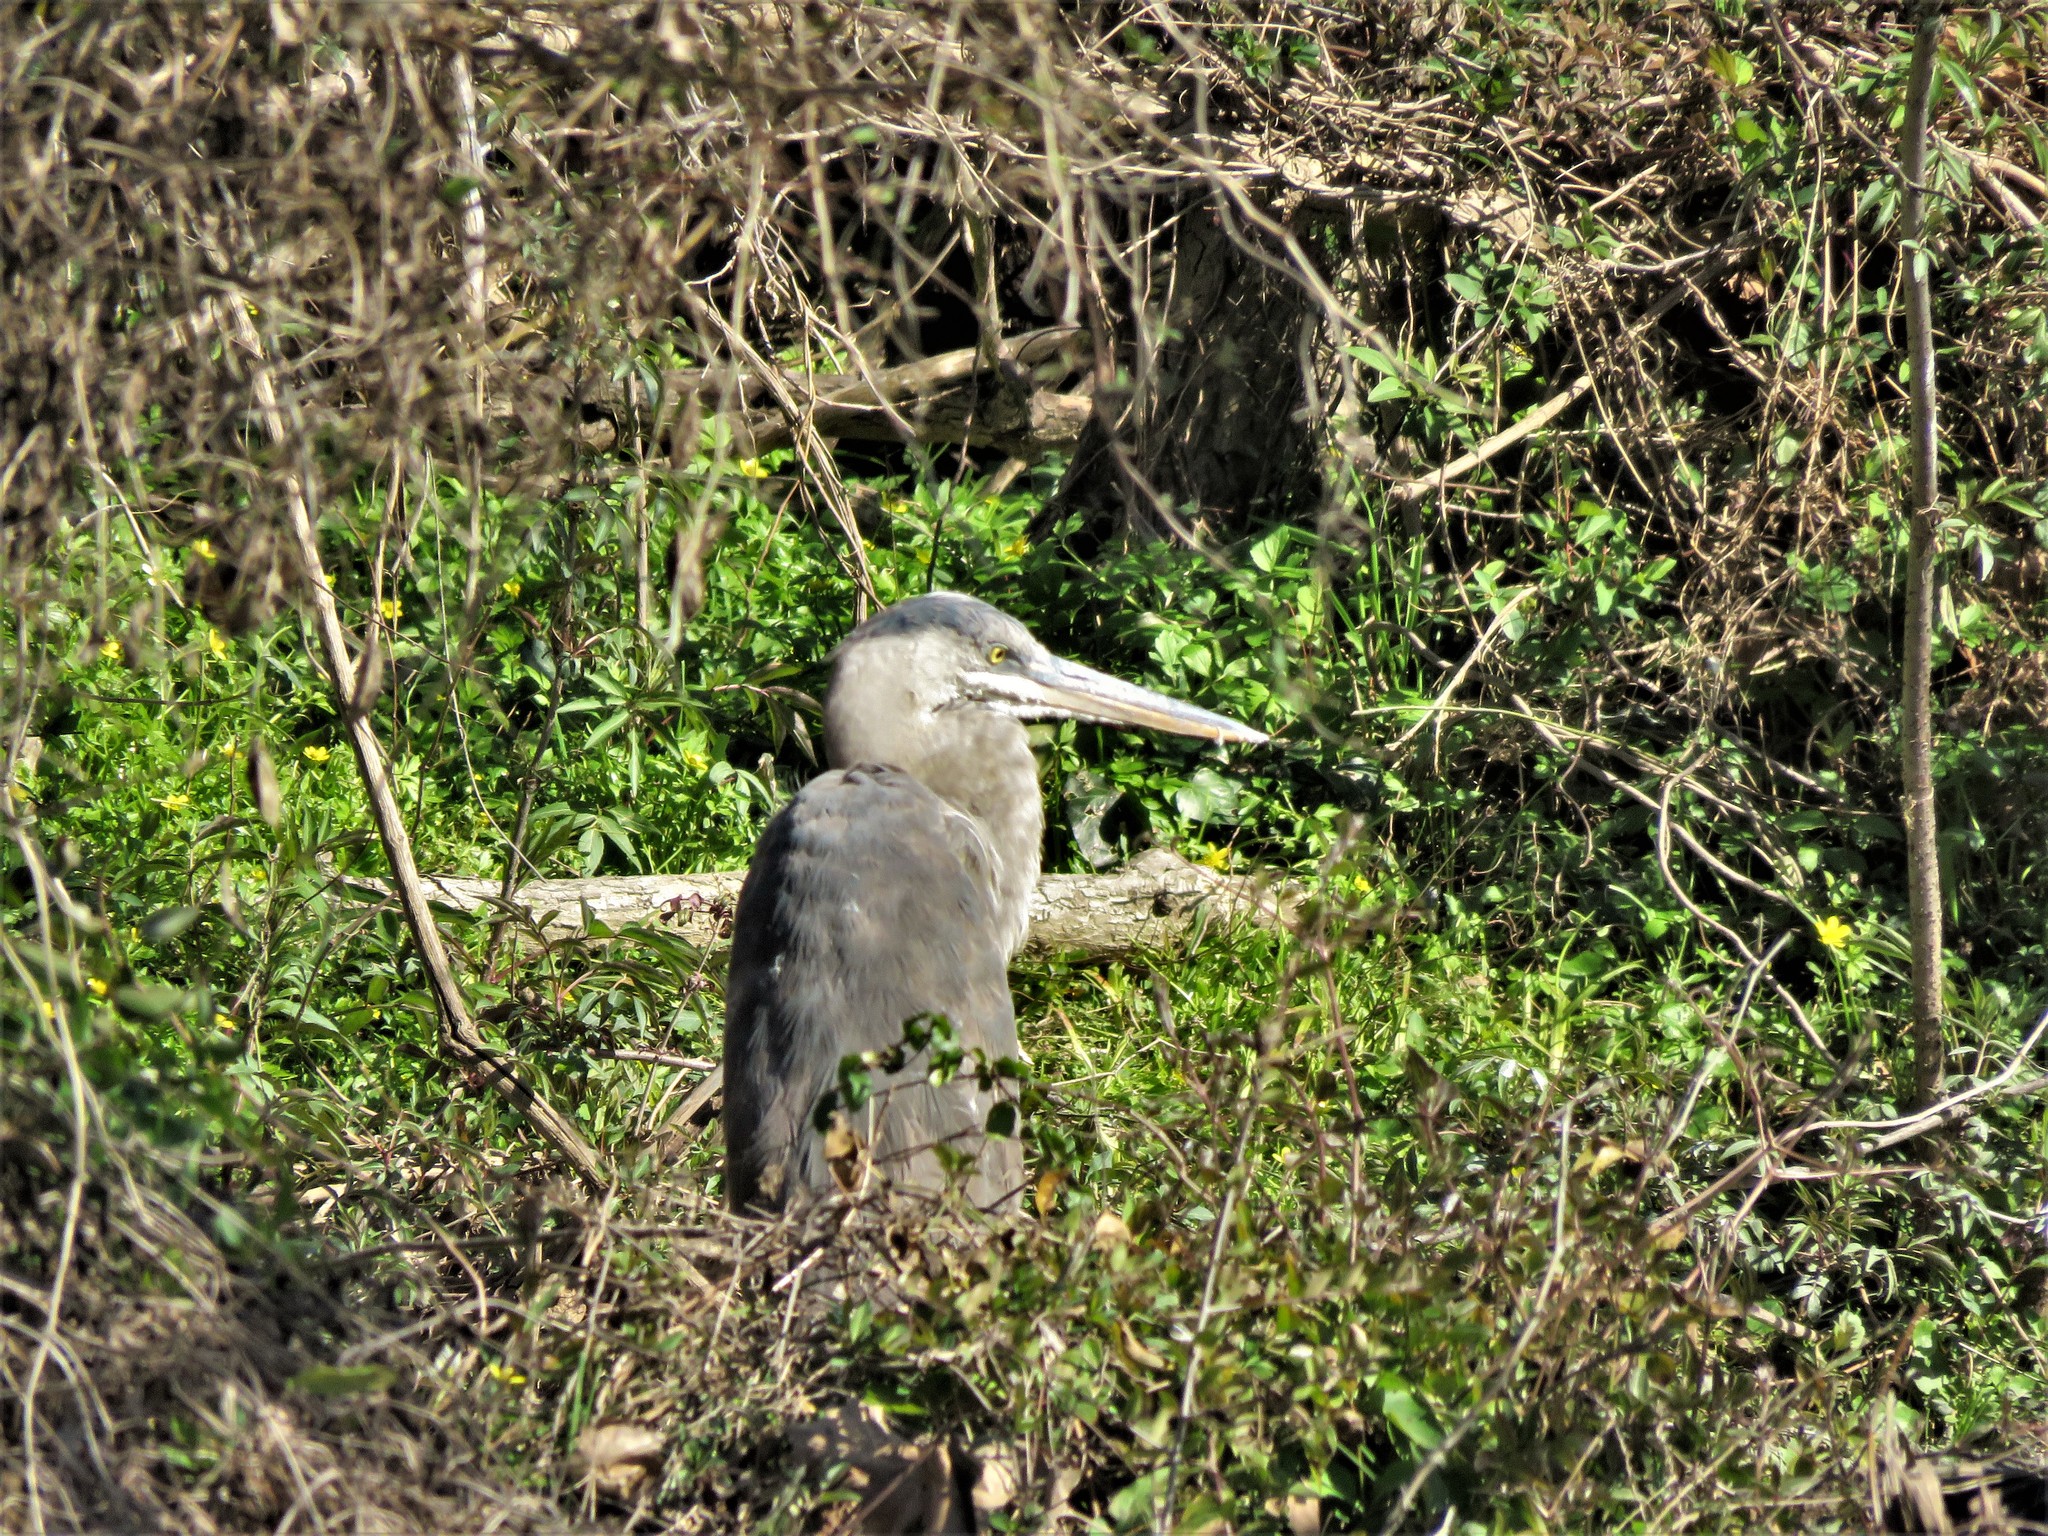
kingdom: Animalia
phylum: Chordata
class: Aves
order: Pelecaniformes
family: Ardeidae
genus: Ardea
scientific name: Ardea herodias
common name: Great blue heron
